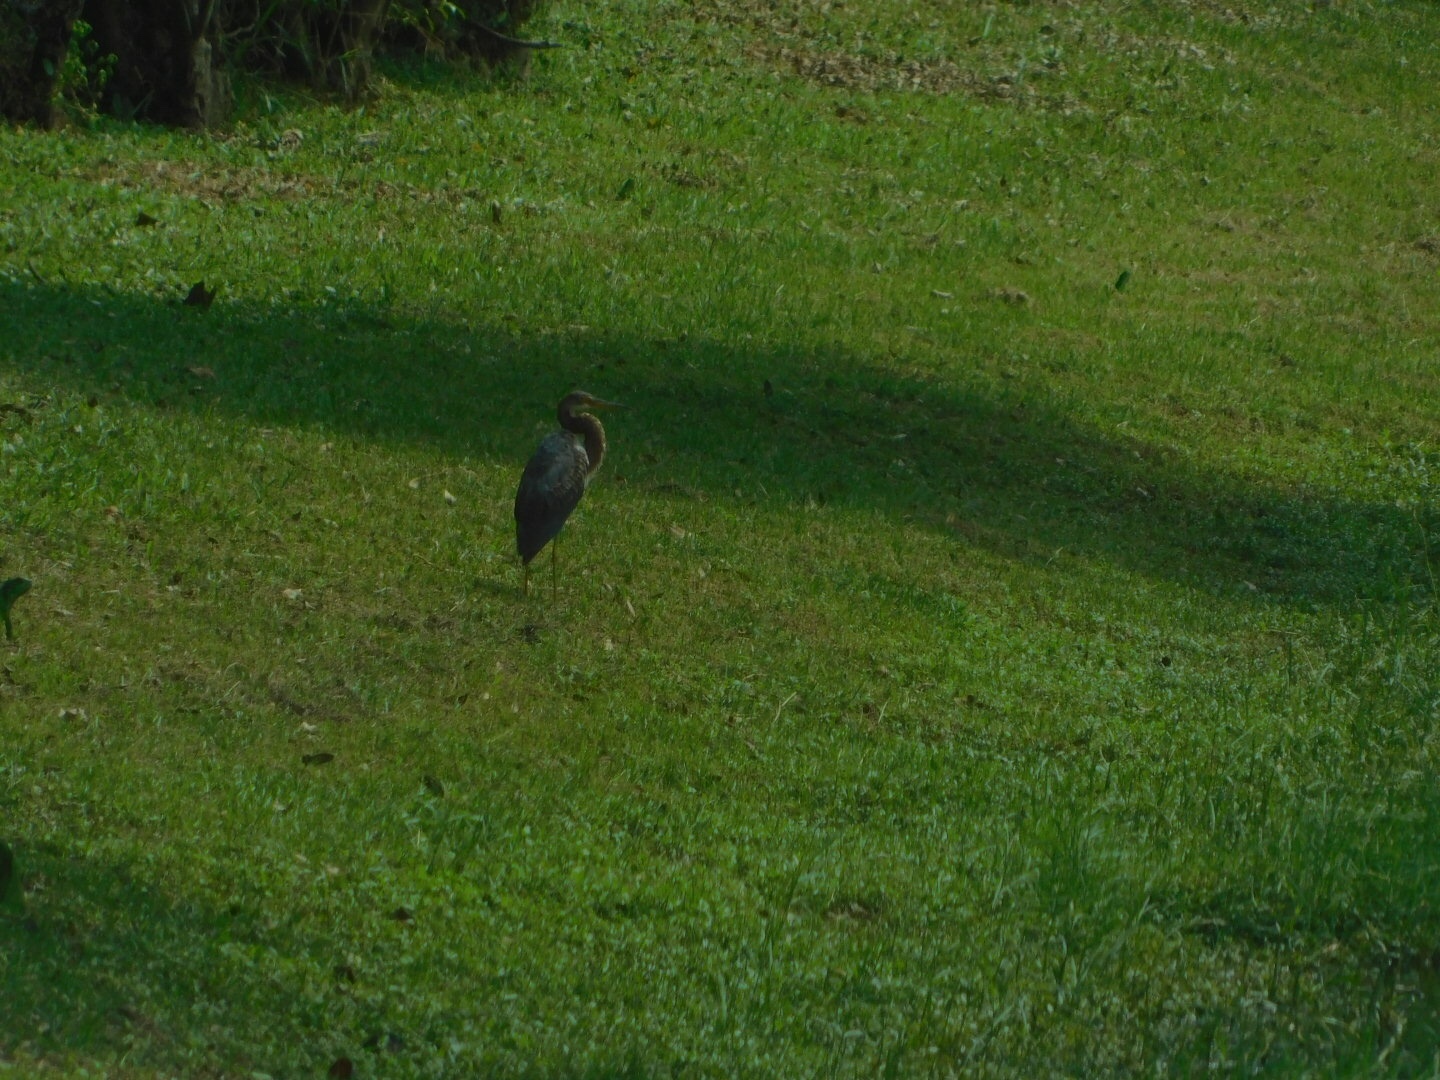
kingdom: Animalia
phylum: Chordata
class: Aves
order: Pelecaniformes
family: Ardeidae
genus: Egretta
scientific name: Egretta tricolor
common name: Tricolored heron
